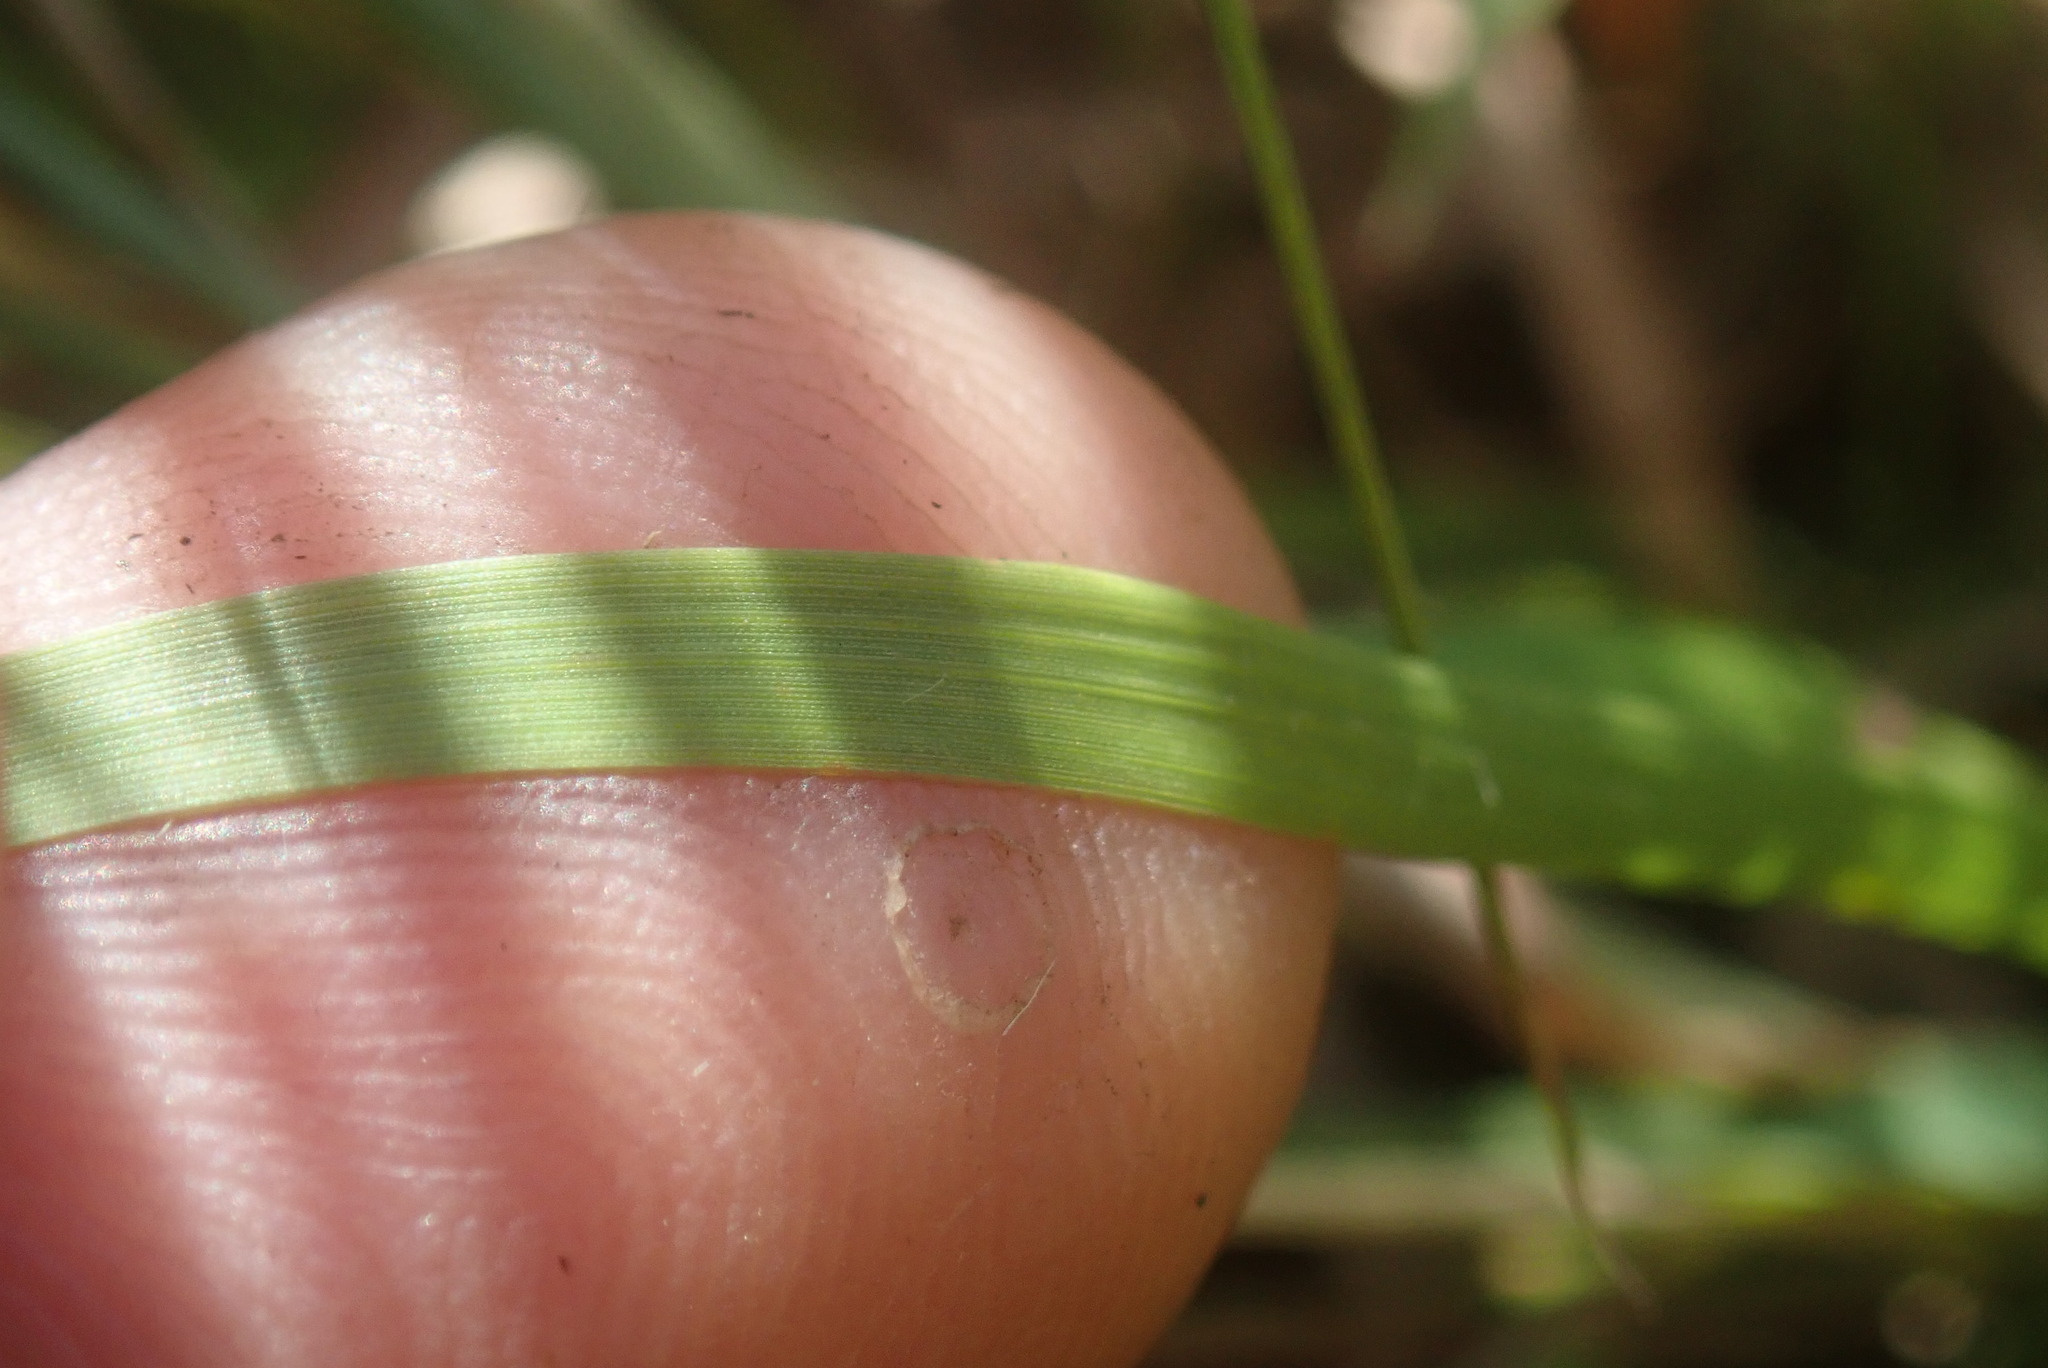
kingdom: Plantae
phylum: Tracheophyta
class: Liliopsida
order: Poales
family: Poaceae
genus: Eragrostis
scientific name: Eragrostis racemosa
